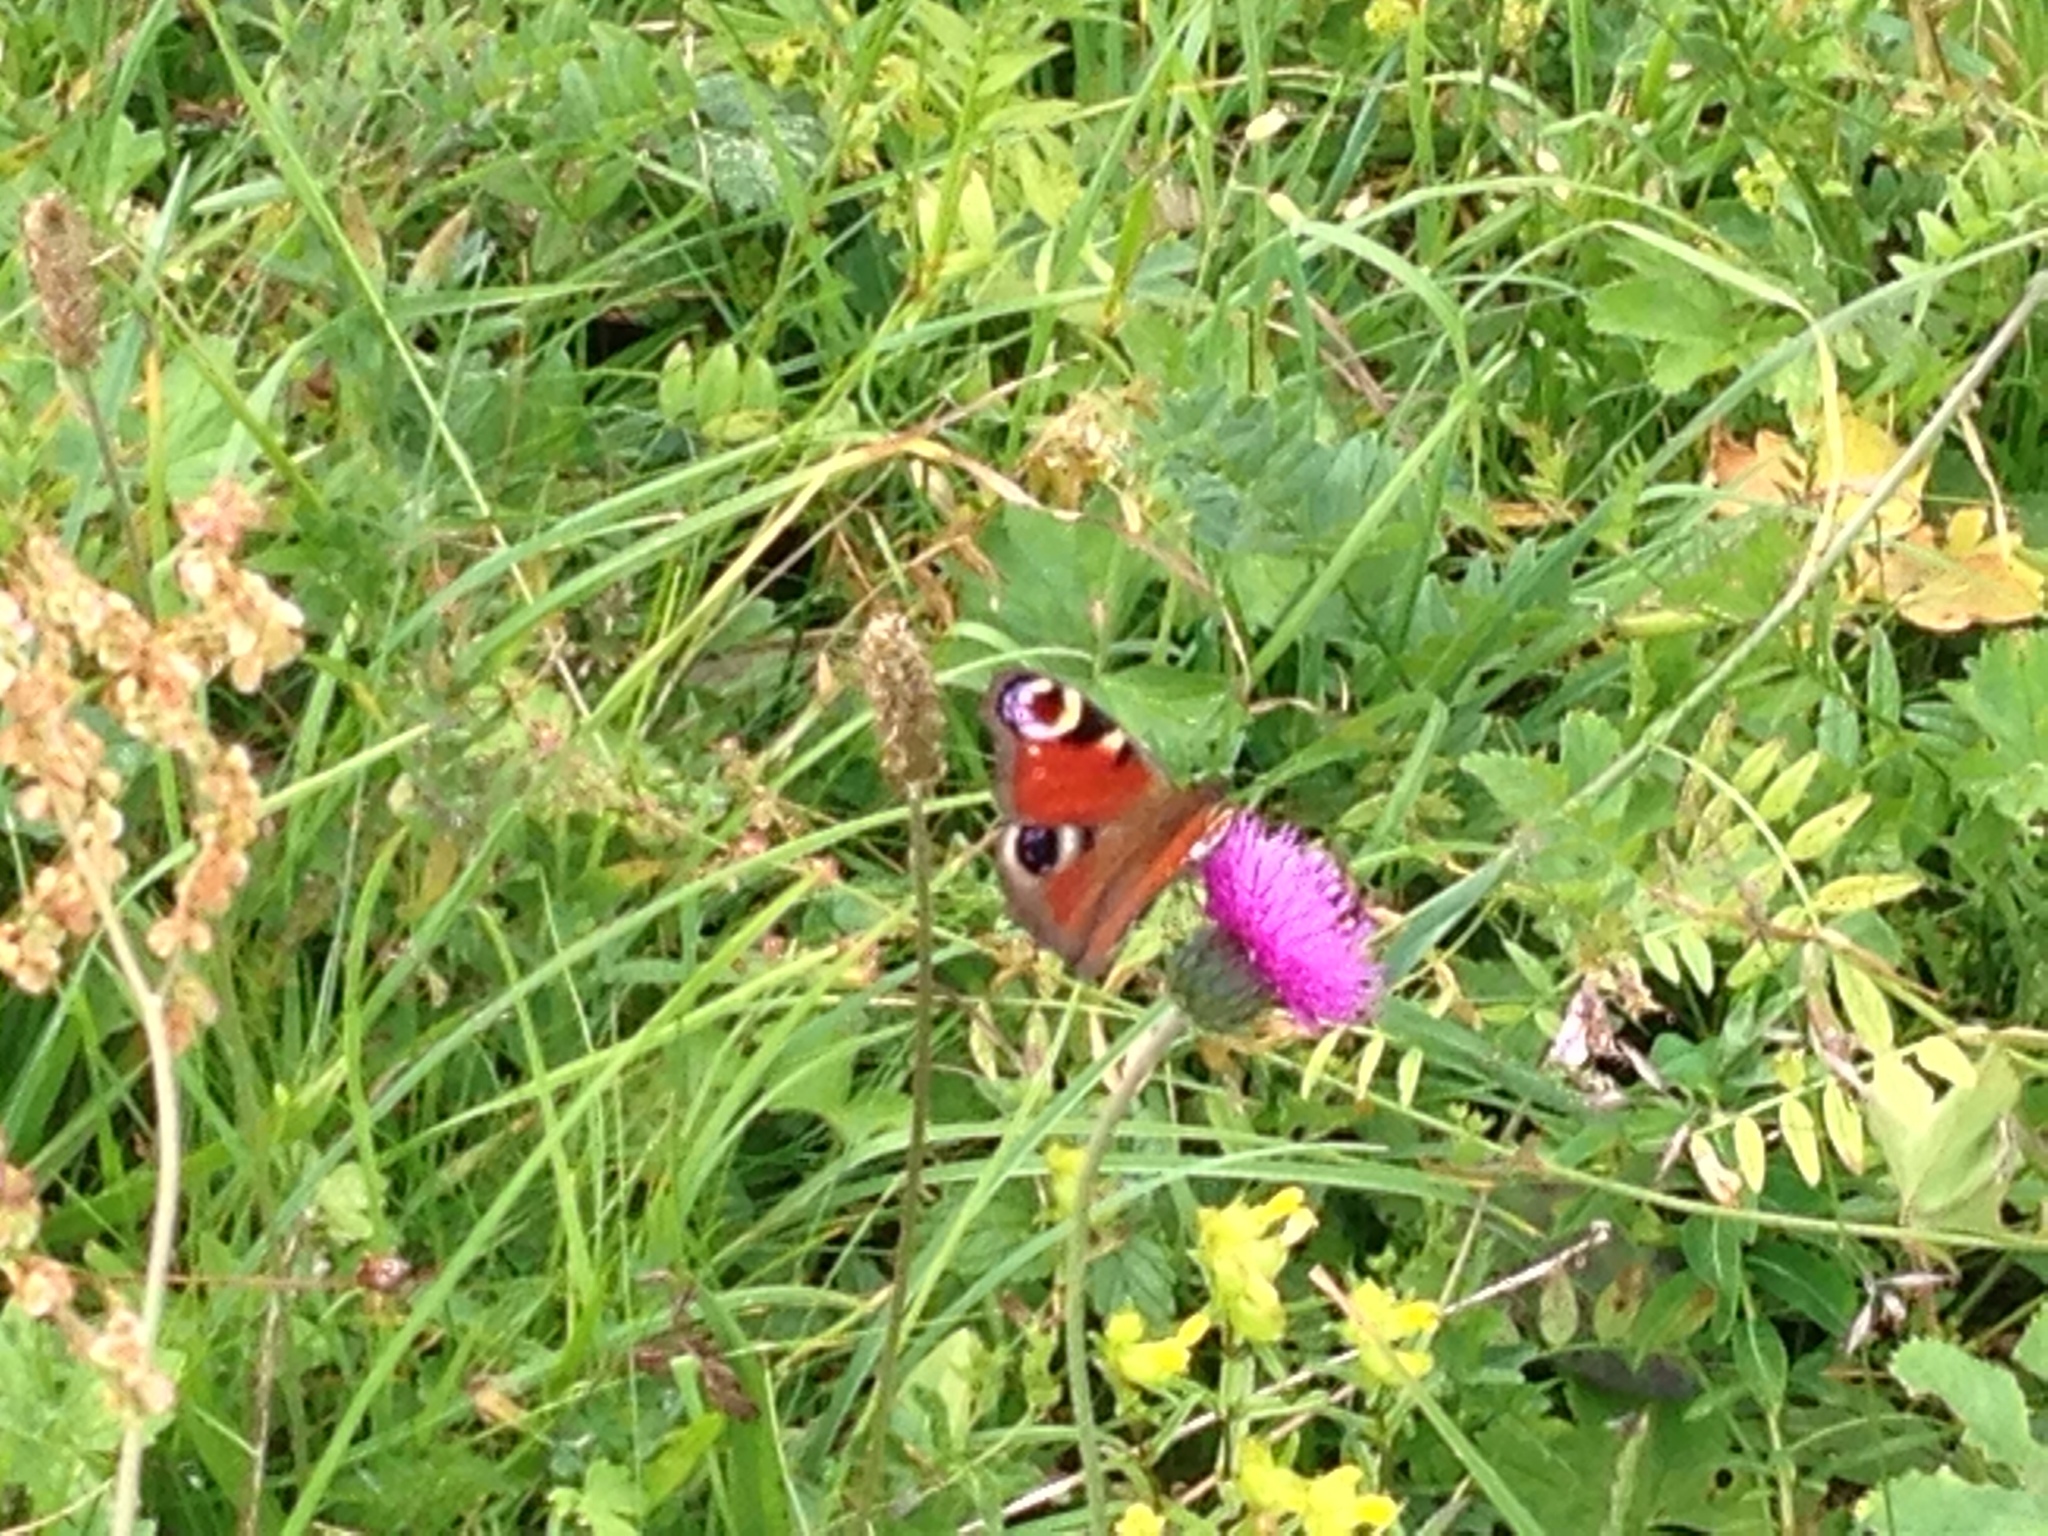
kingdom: Animalia
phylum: Arthropoda
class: Insecta
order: Lepidoptera
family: Nymphalidae
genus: Aglais
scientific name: Aglais io
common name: Peacock
